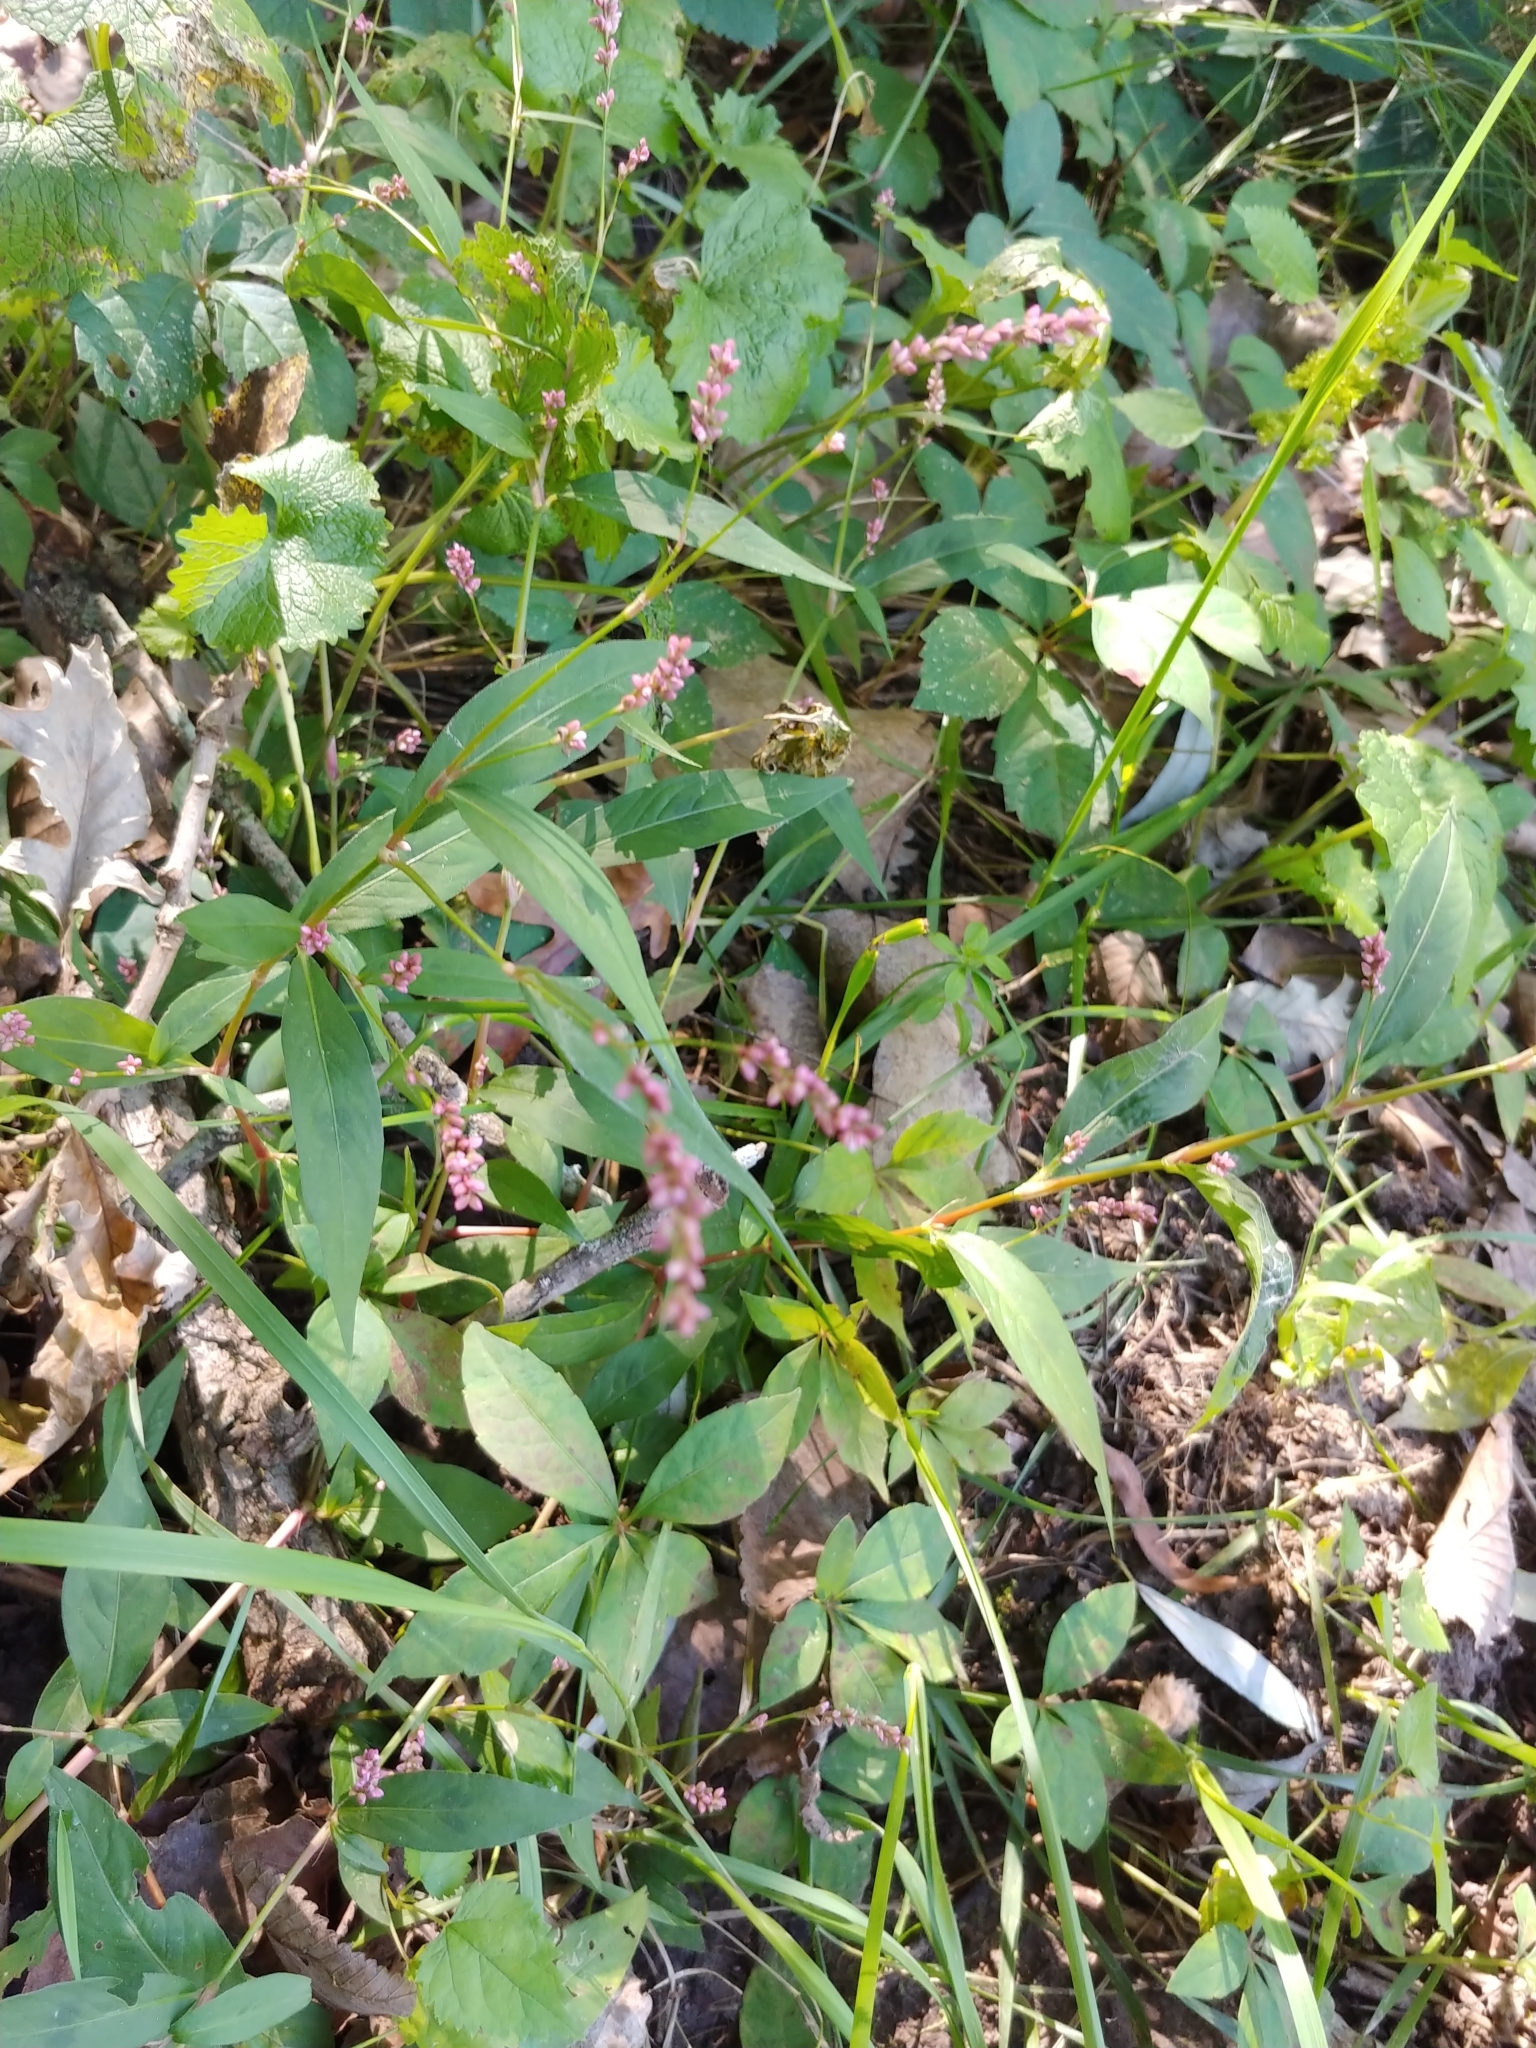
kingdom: Plantae
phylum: Tracheophyta
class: Magnoliopsida
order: Caryophyllales
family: Polygonaceae
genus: Persicaria
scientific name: Persicaria longiseta
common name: Bristly lady's-thumb
